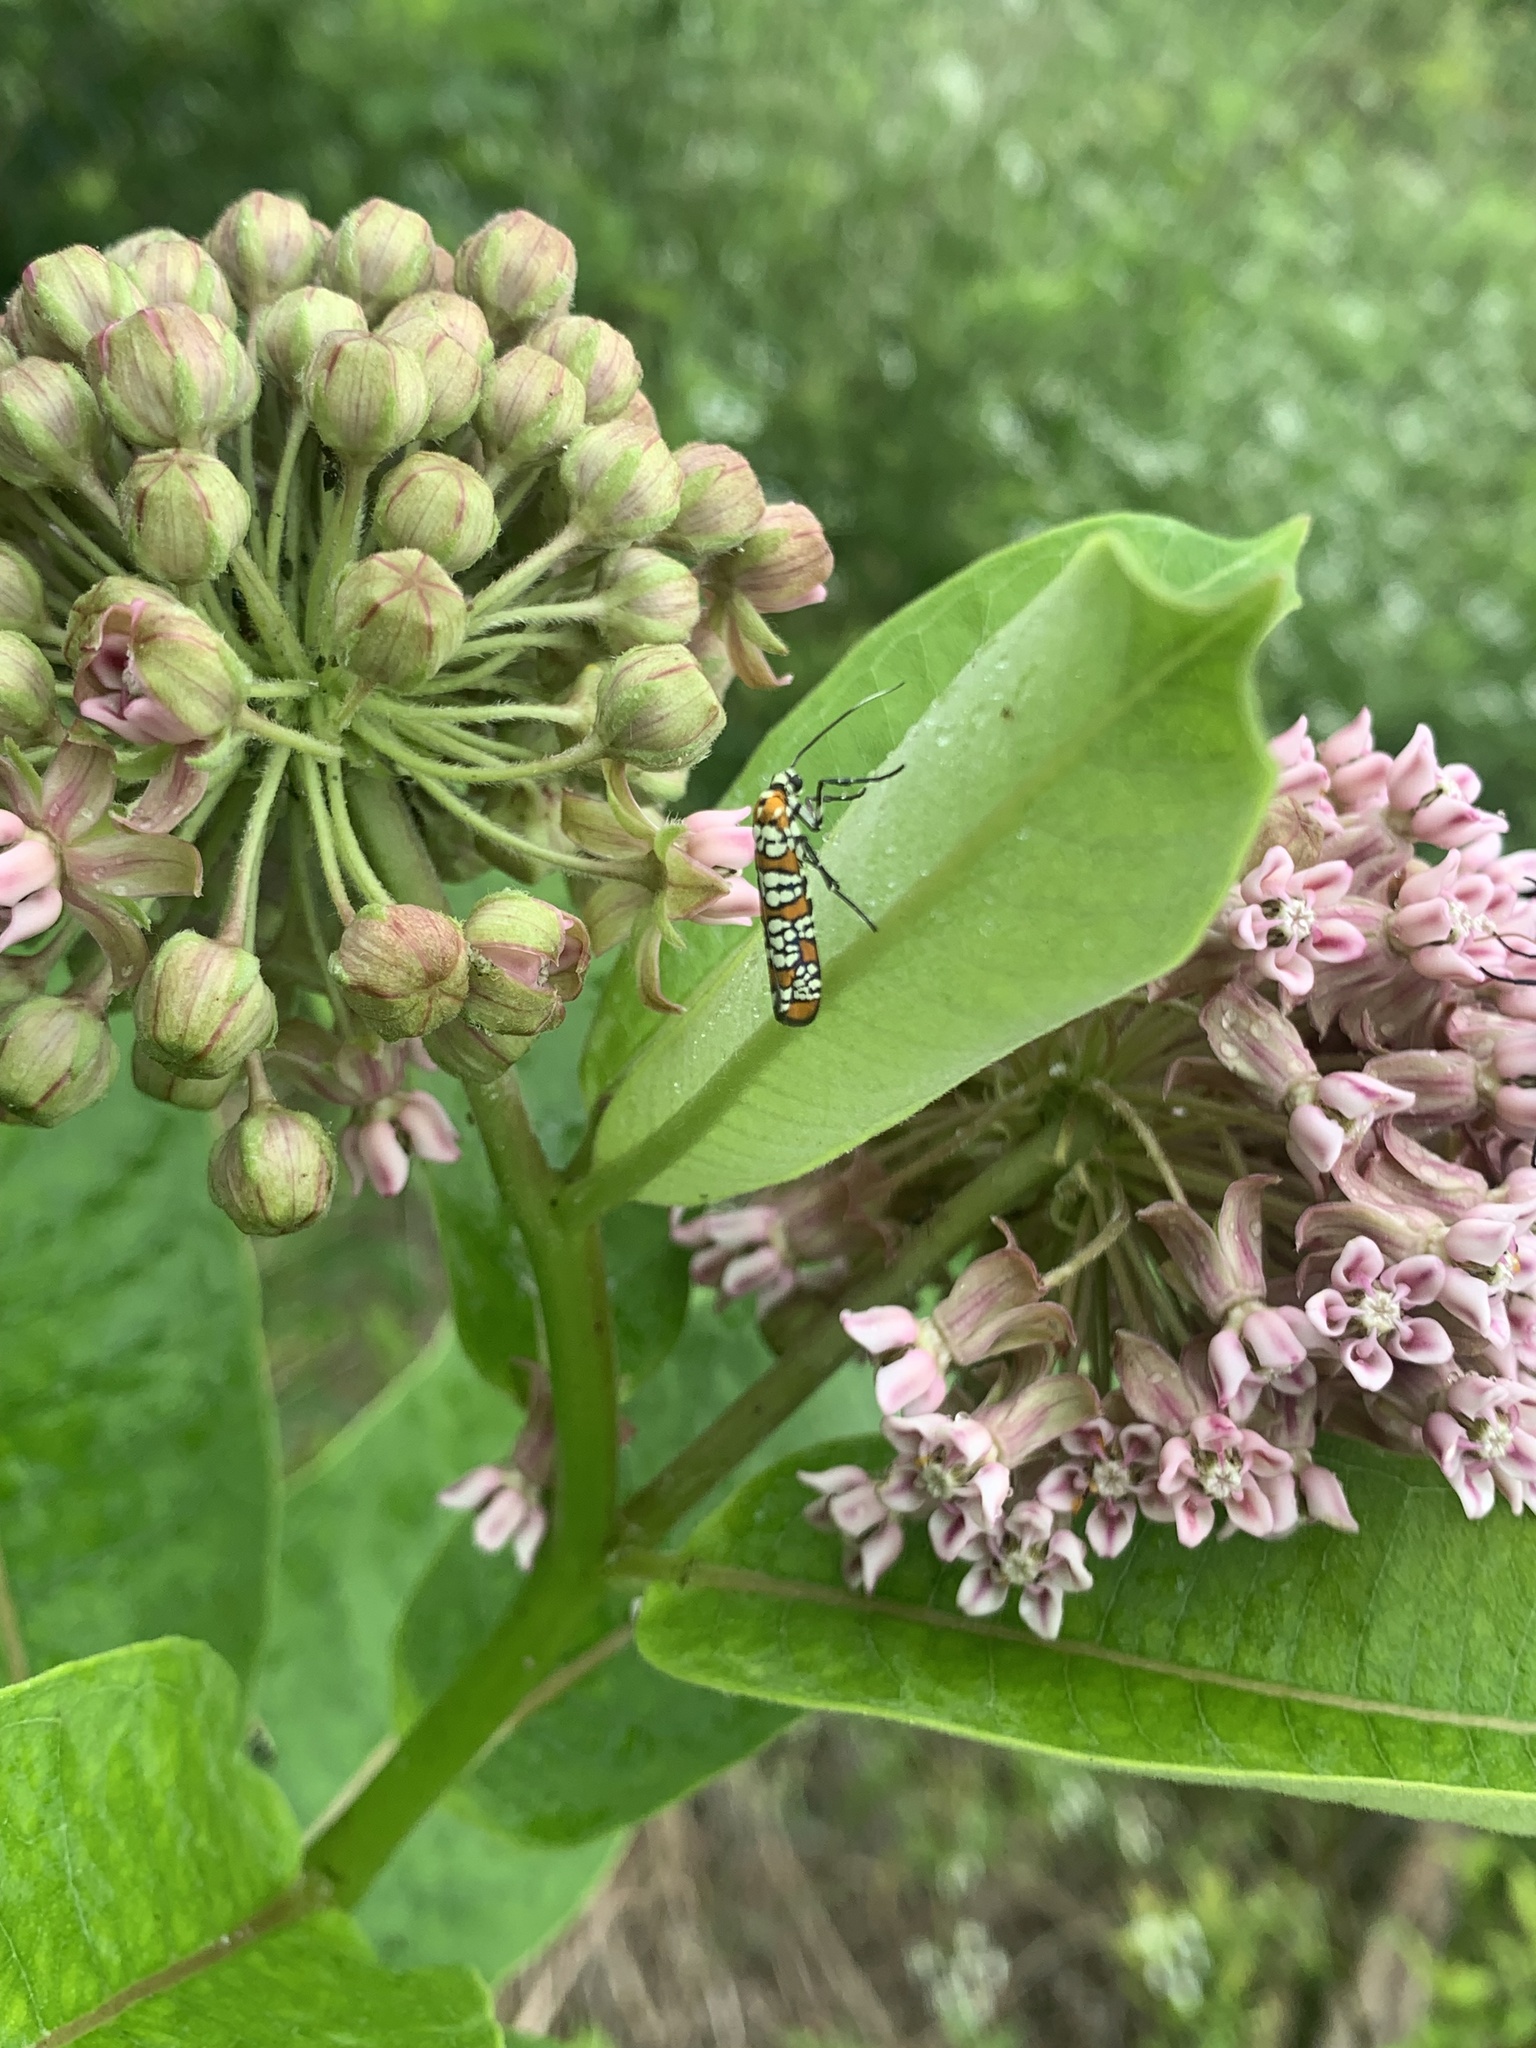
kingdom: Animalia
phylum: Arthropoda
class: Insecta
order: Lepidoptera
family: Attevidae
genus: Atteva
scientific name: Atteva punctella
